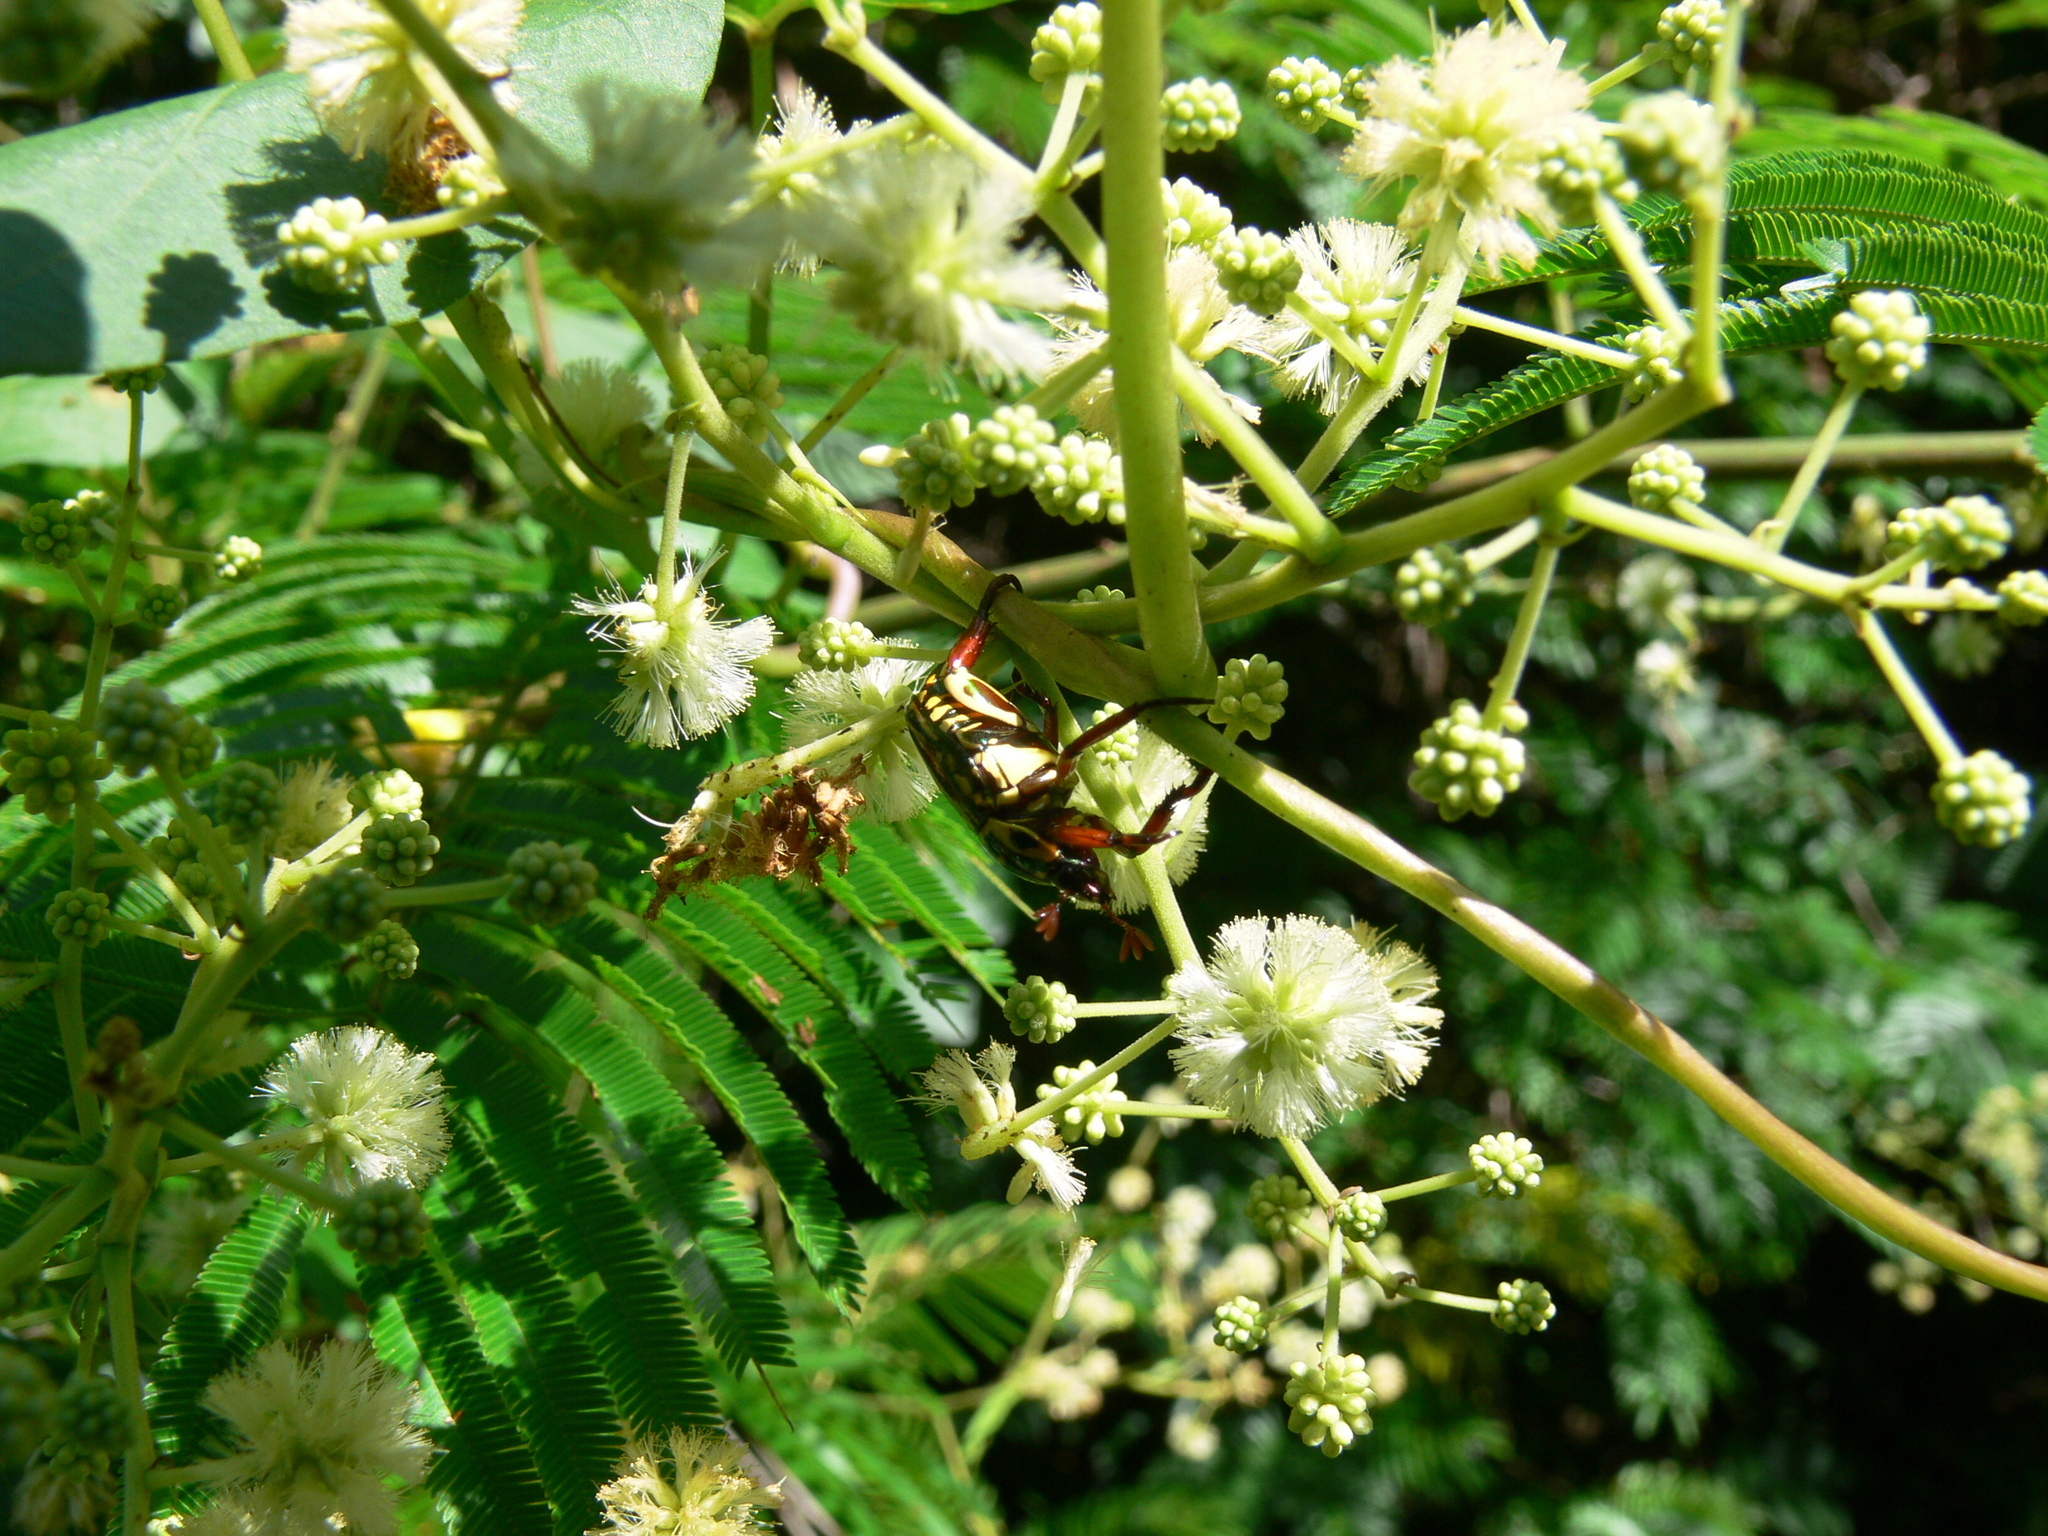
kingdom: Animalia
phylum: Arthropoda
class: Insecta
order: Coleoptera
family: Scarabaeidae
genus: Rutela
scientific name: Rutela formosa
